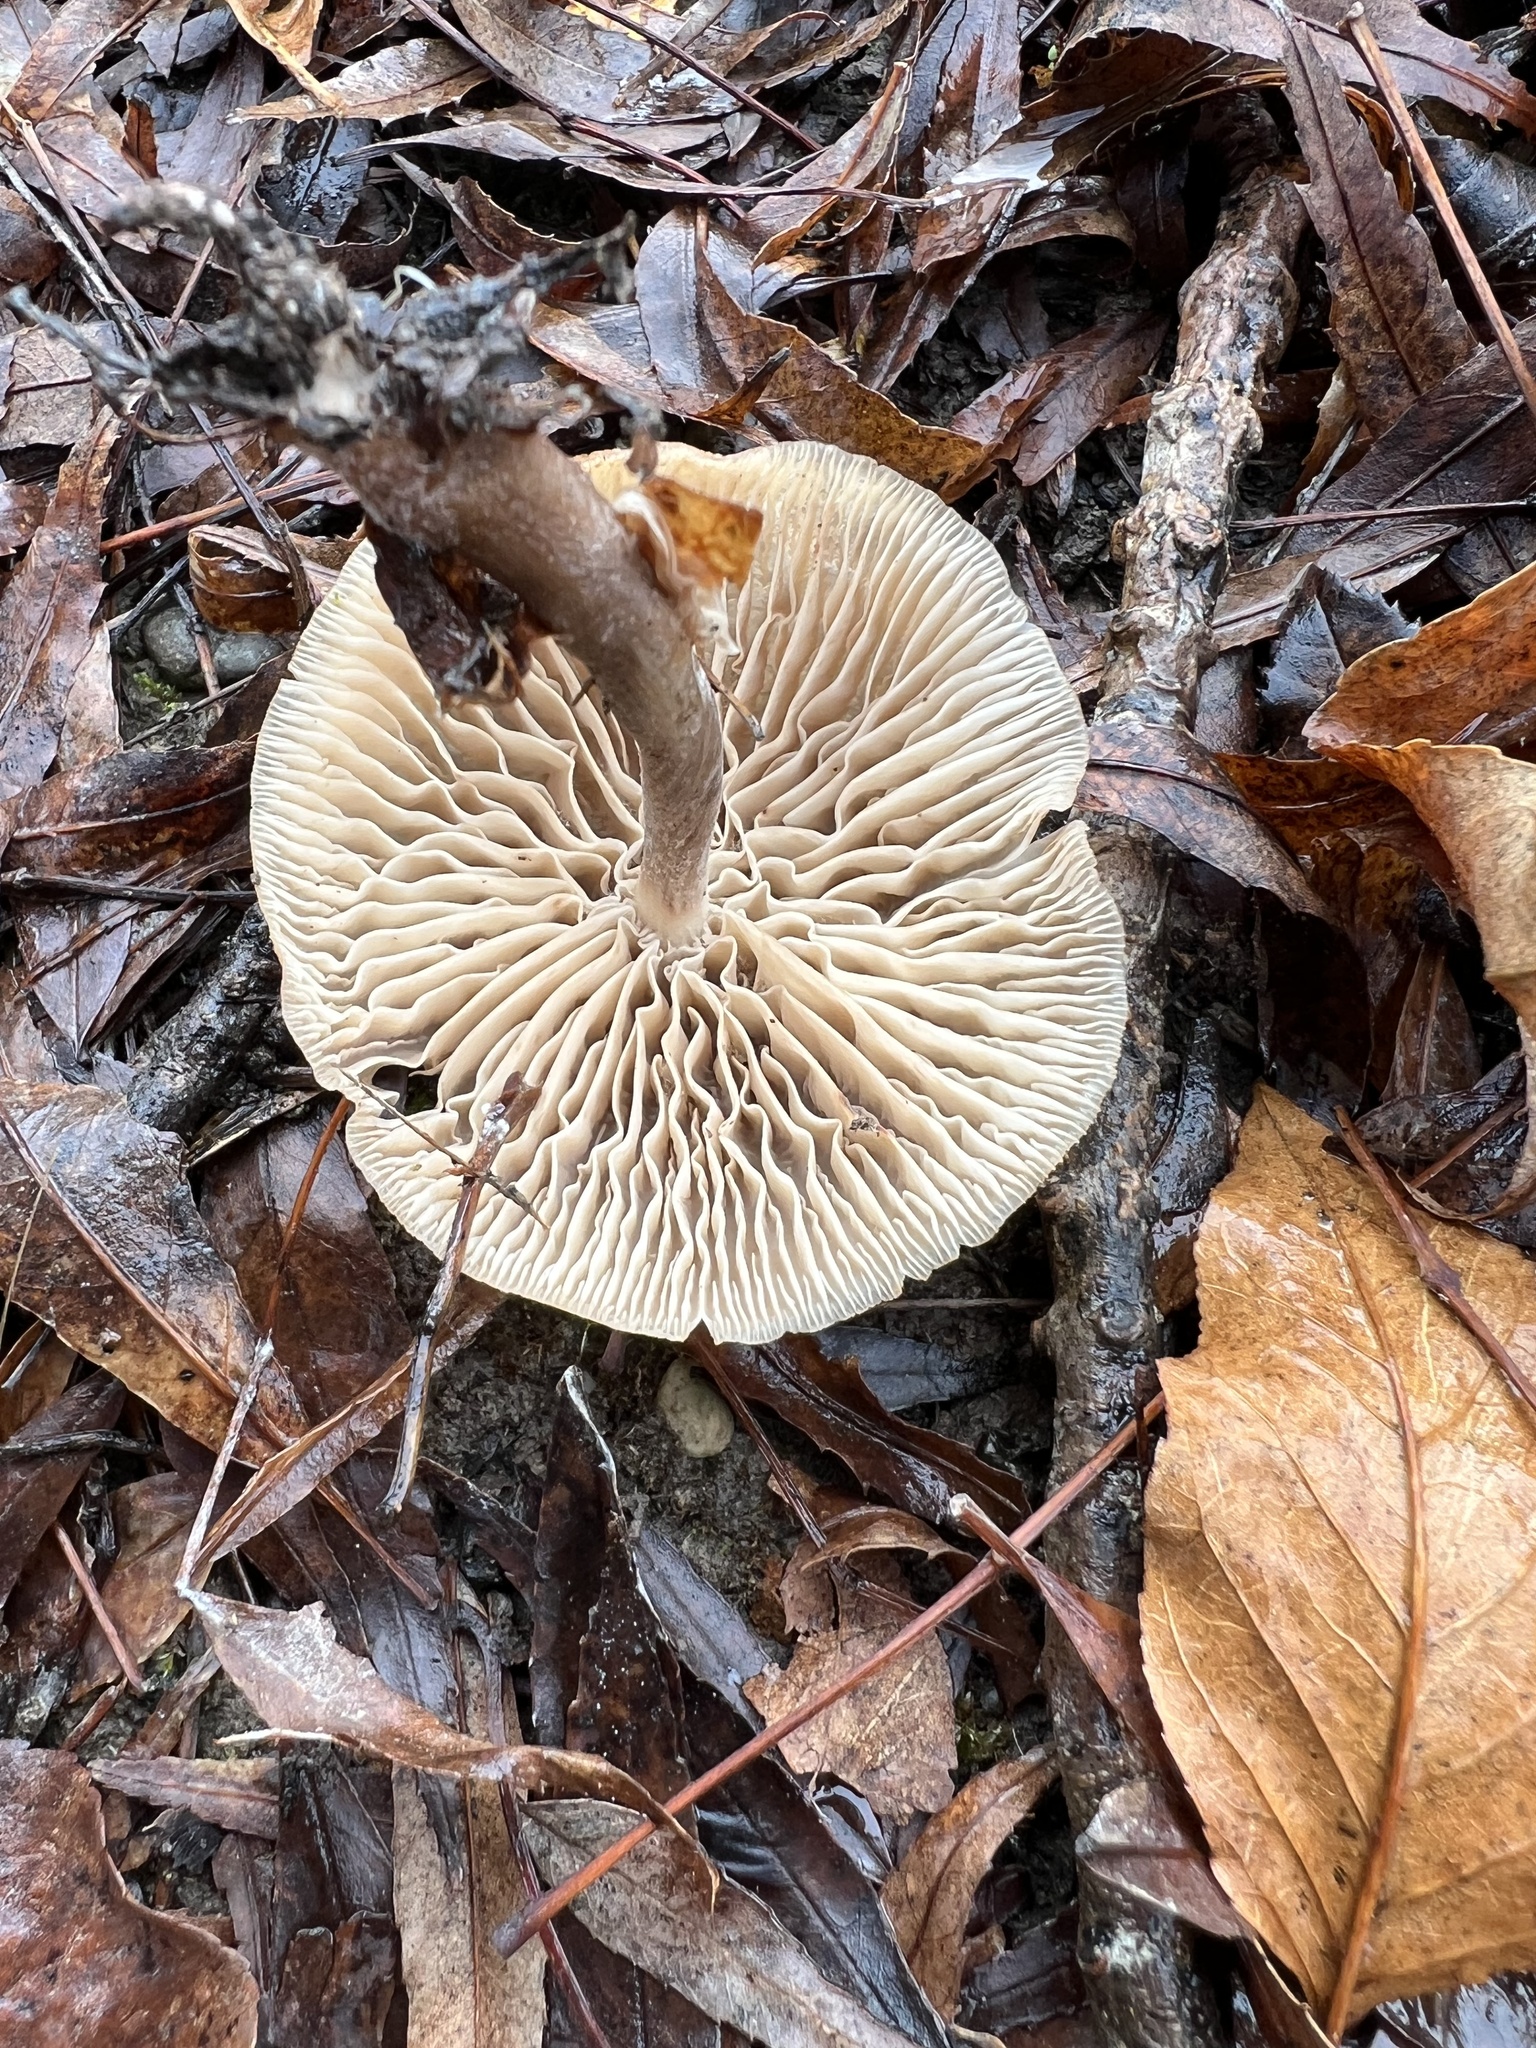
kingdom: Fungi
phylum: Basidiomycota
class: Agaricomycetes
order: Agaricales
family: Omphalotaceae
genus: Collybiopsis
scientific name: Collybiopsis subpruinosa
